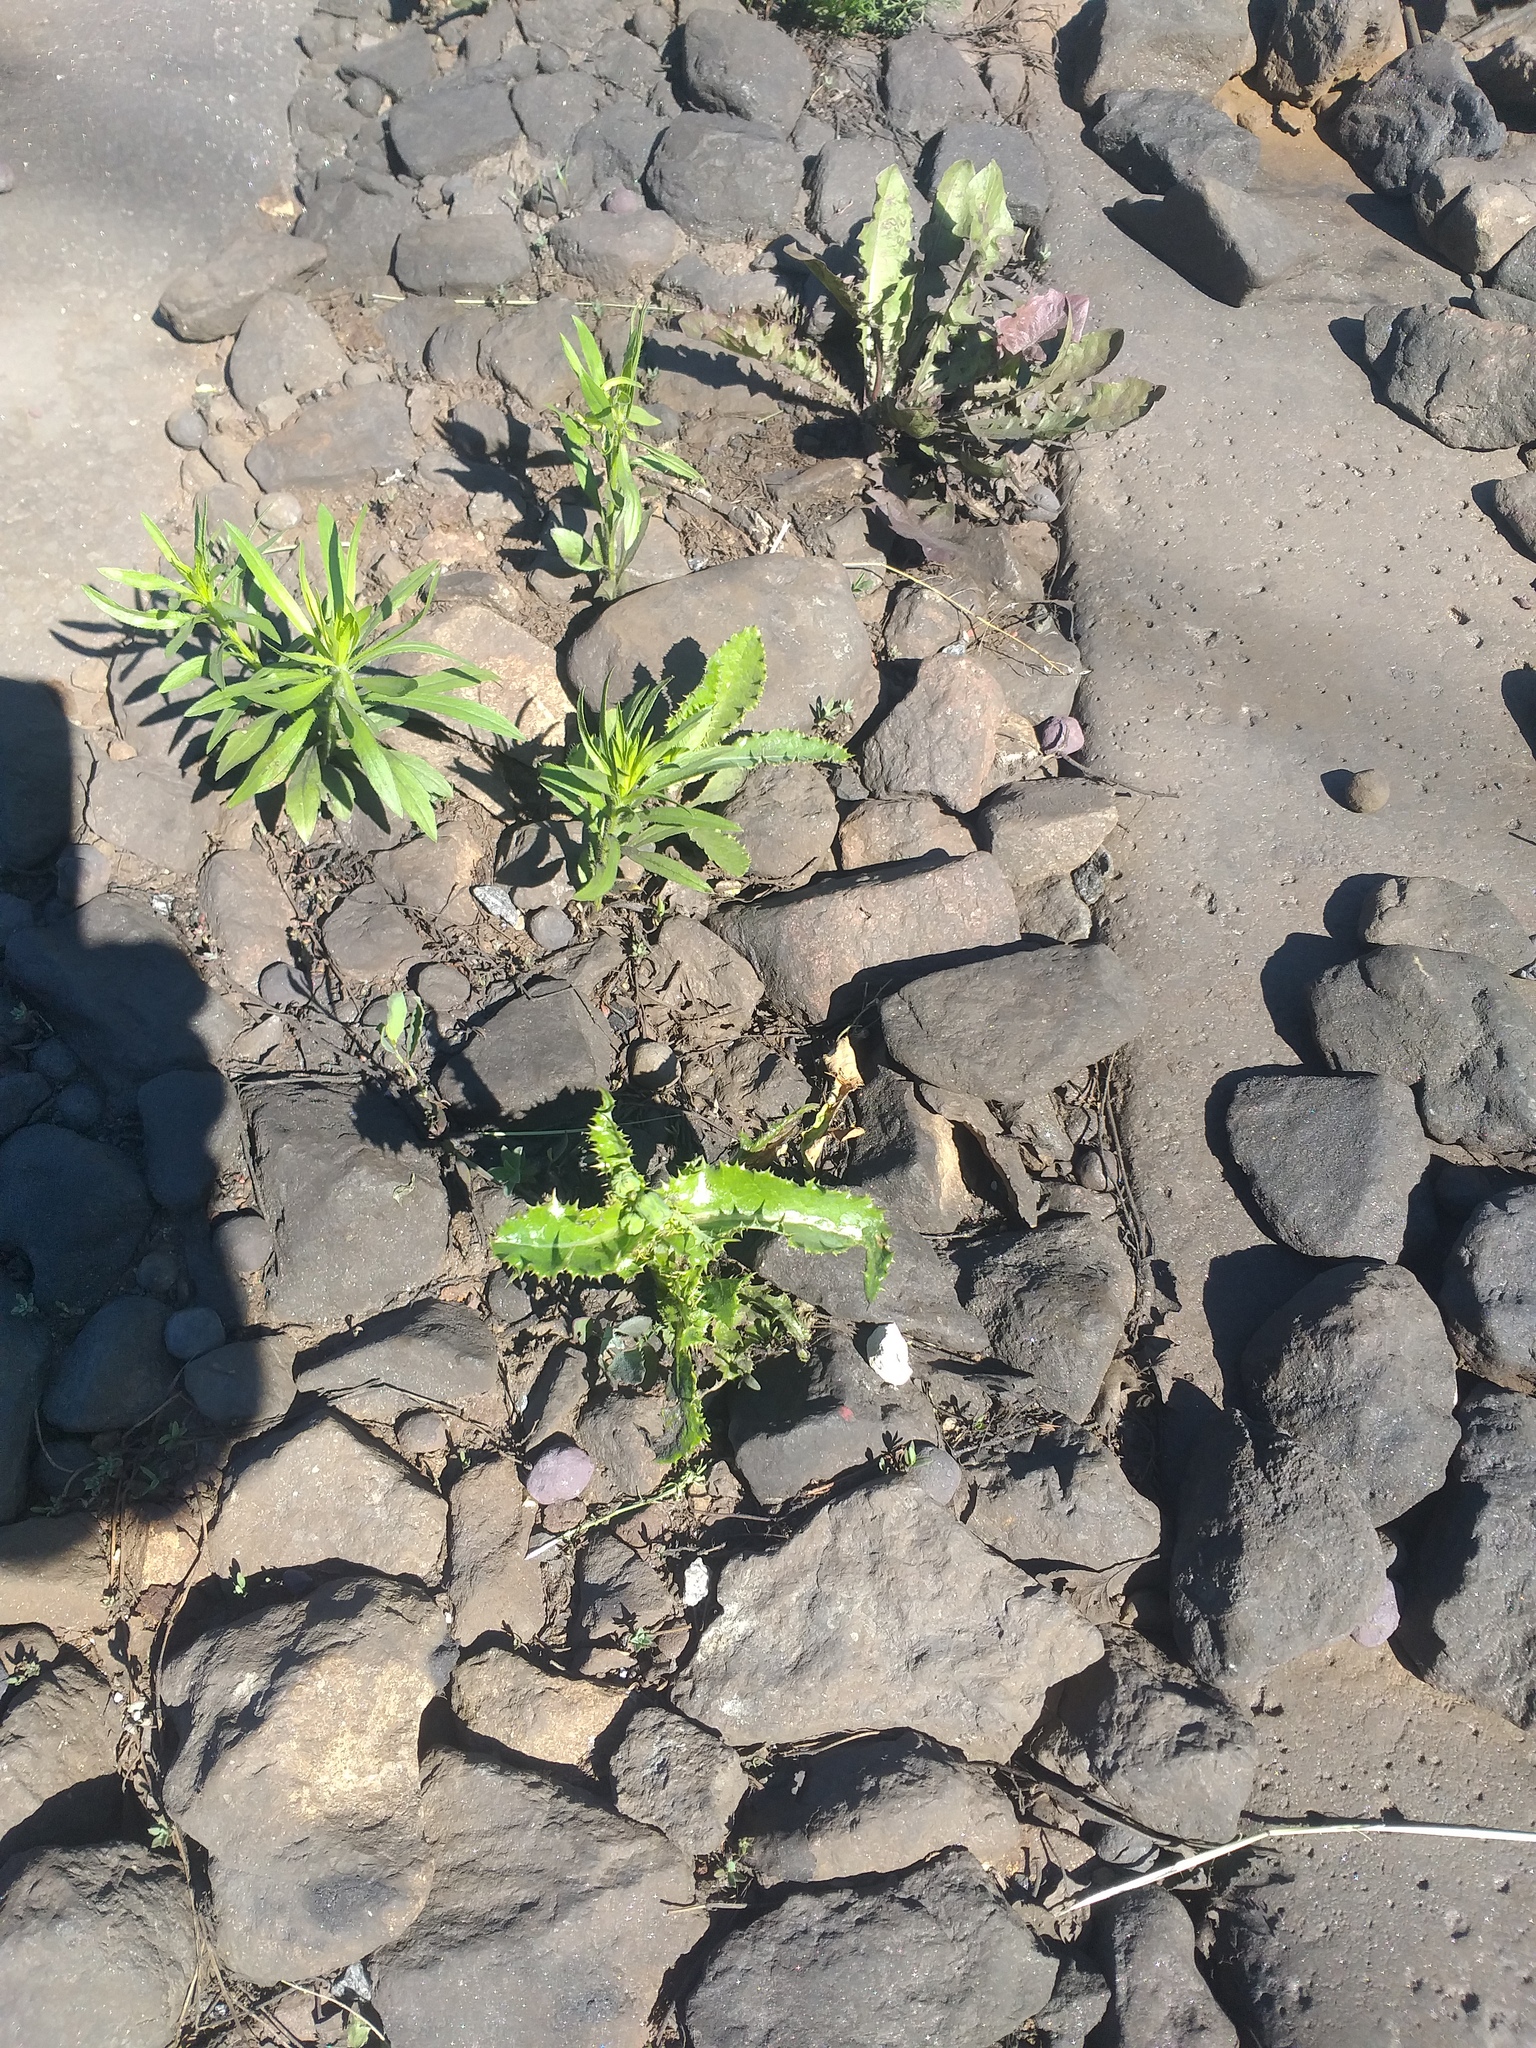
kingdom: Plantae
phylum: Tracheophyta
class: Magnoliopsida
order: Asterales
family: Asteraceae
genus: Sonchus
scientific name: Sonchus asper
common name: Prickly sow-thistle
